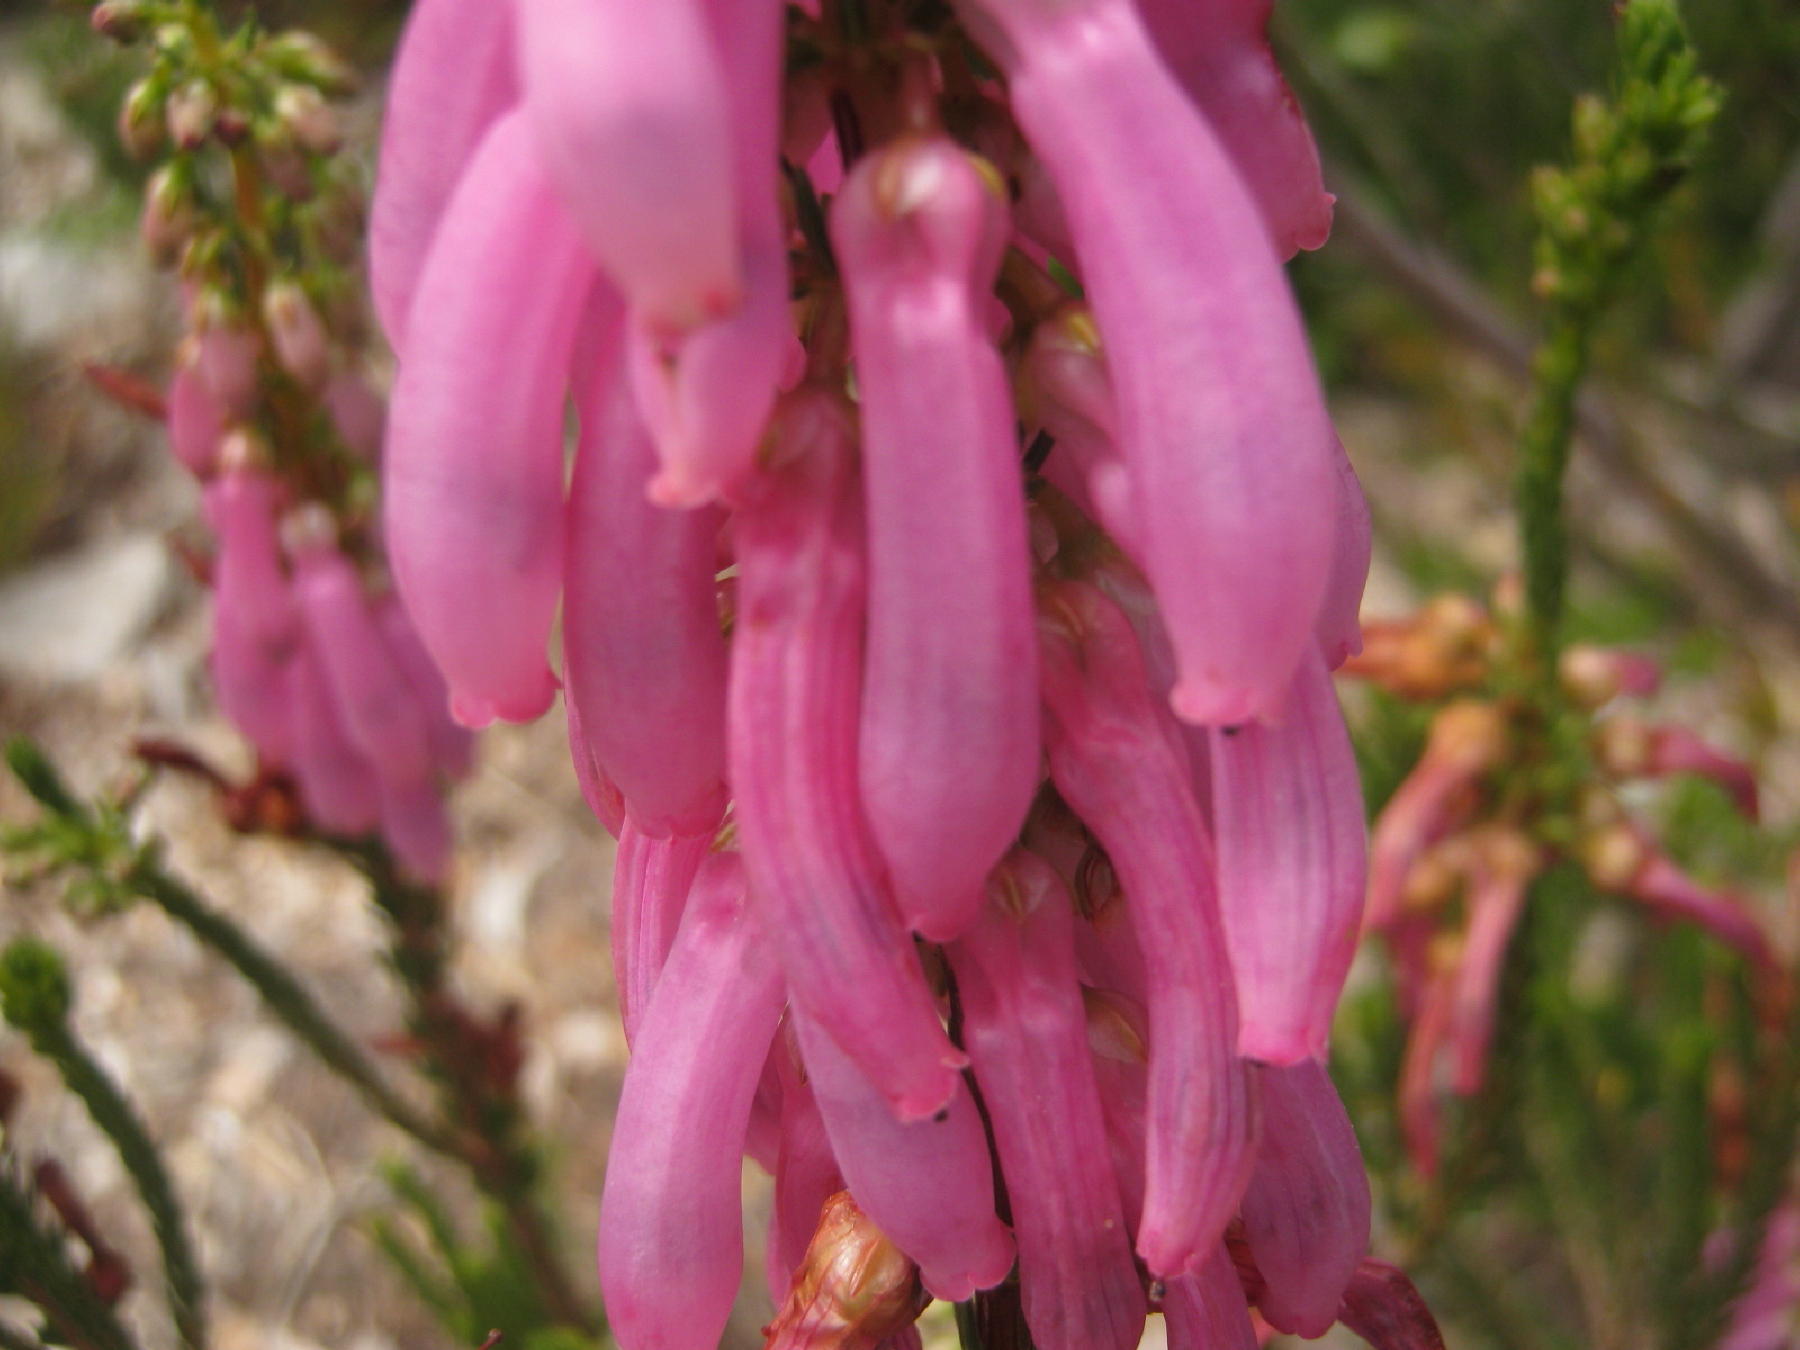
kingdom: Plantae
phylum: Tracheophyta
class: Magnoliopsida
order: Ericales
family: Ericaceae
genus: Erica
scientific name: Erica mammosa
